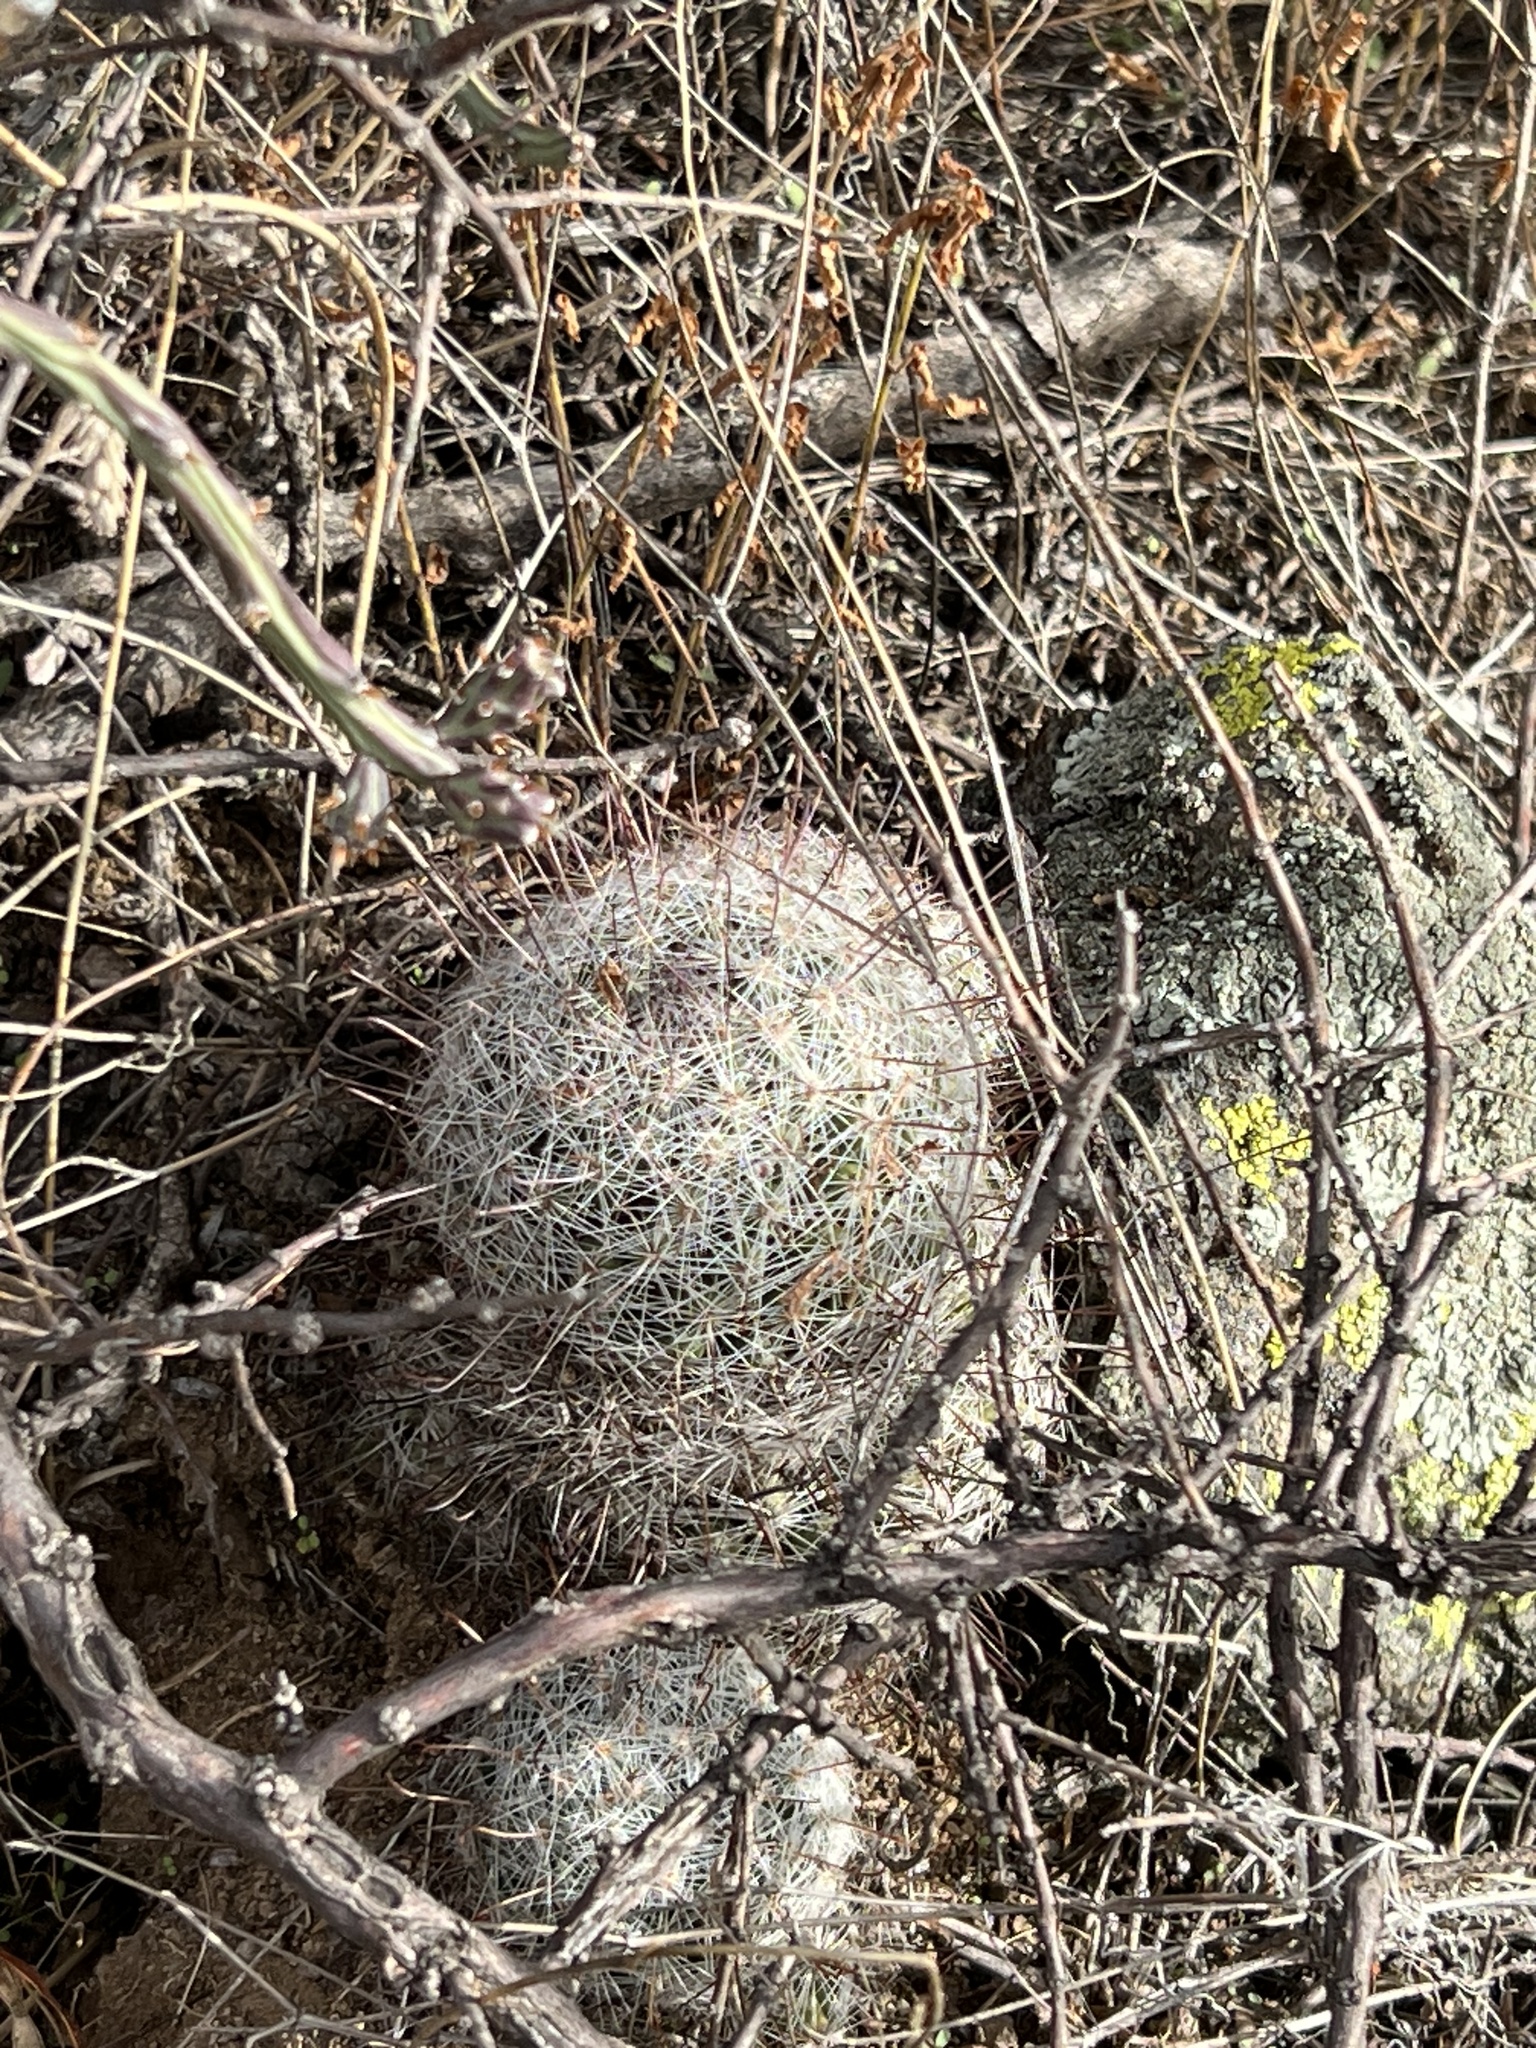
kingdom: Plantae
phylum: Tracheophyta
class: Magnoliopsida
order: Caryophyllales
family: Cactaceae
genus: Cochemiea
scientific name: Cochemiea grahamii
